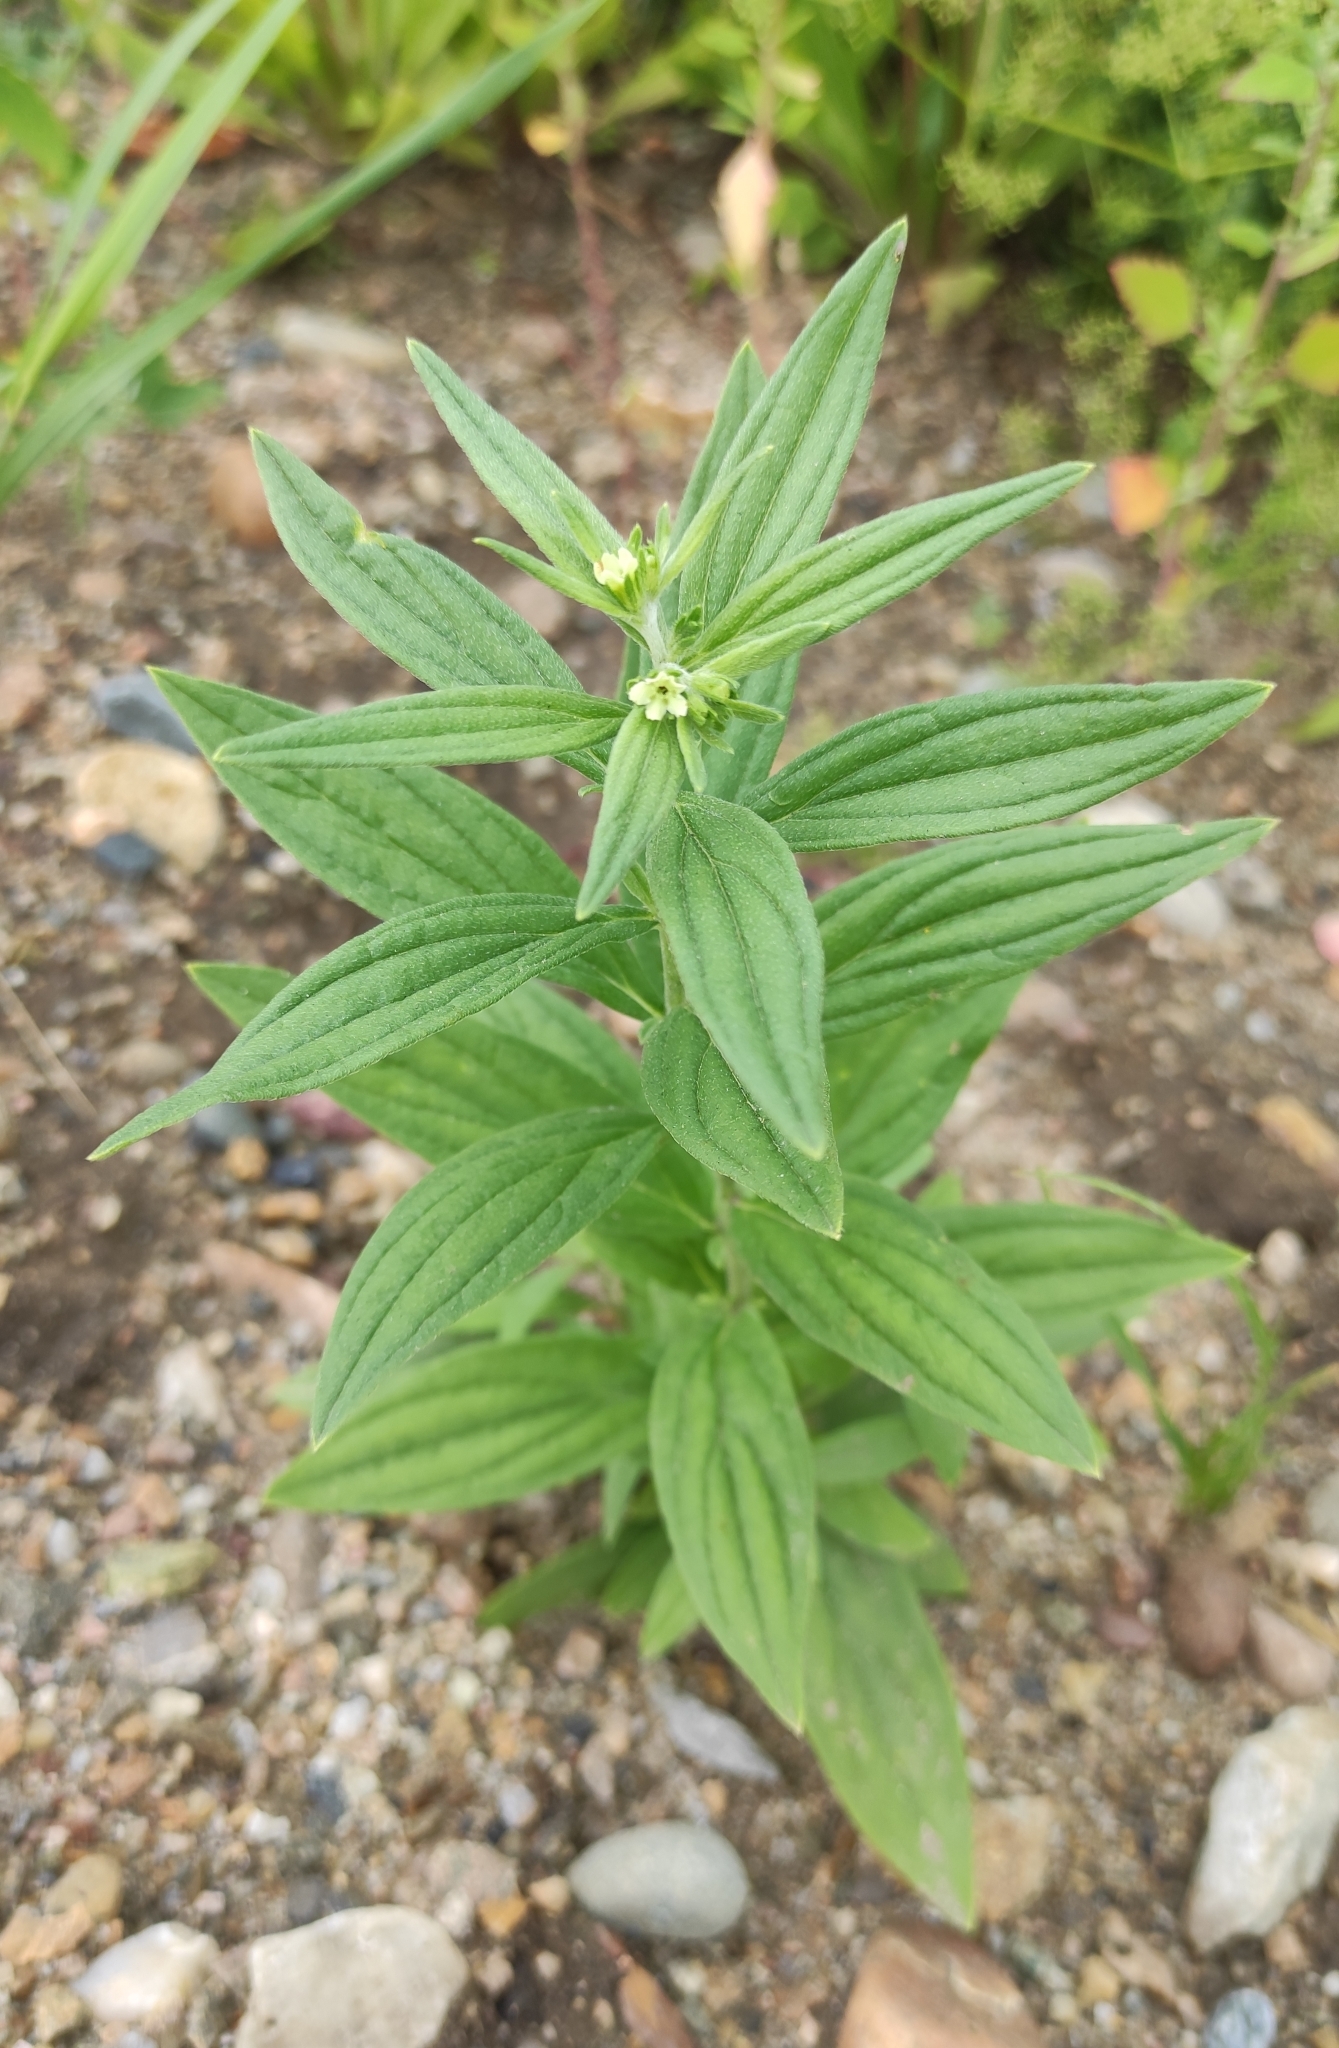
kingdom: Plantae
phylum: Tracheophyta
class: Magnoliopsida
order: Boraginales
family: Boraginaceae
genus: Lithospermum
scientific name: Lithospermum officinale
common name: Common gromwell
